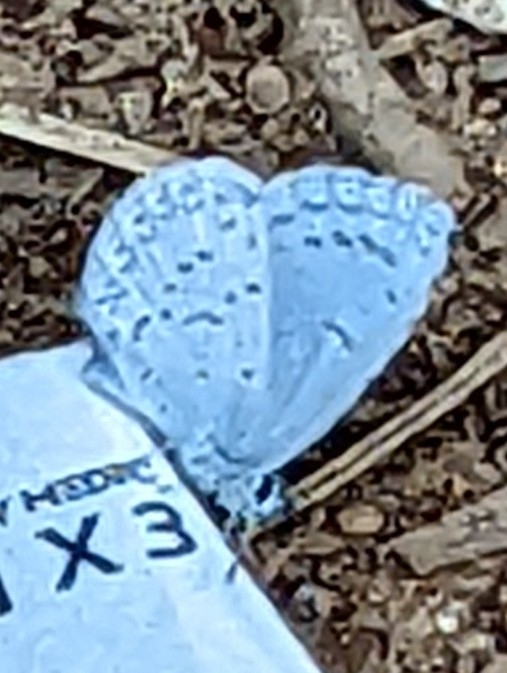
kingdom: Animalia
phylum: Arthropoda
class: Insecta
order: Lepidoptera
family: Lycaenidae
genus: Celastrina
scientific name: Celastrina ladon
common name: Spring azure
